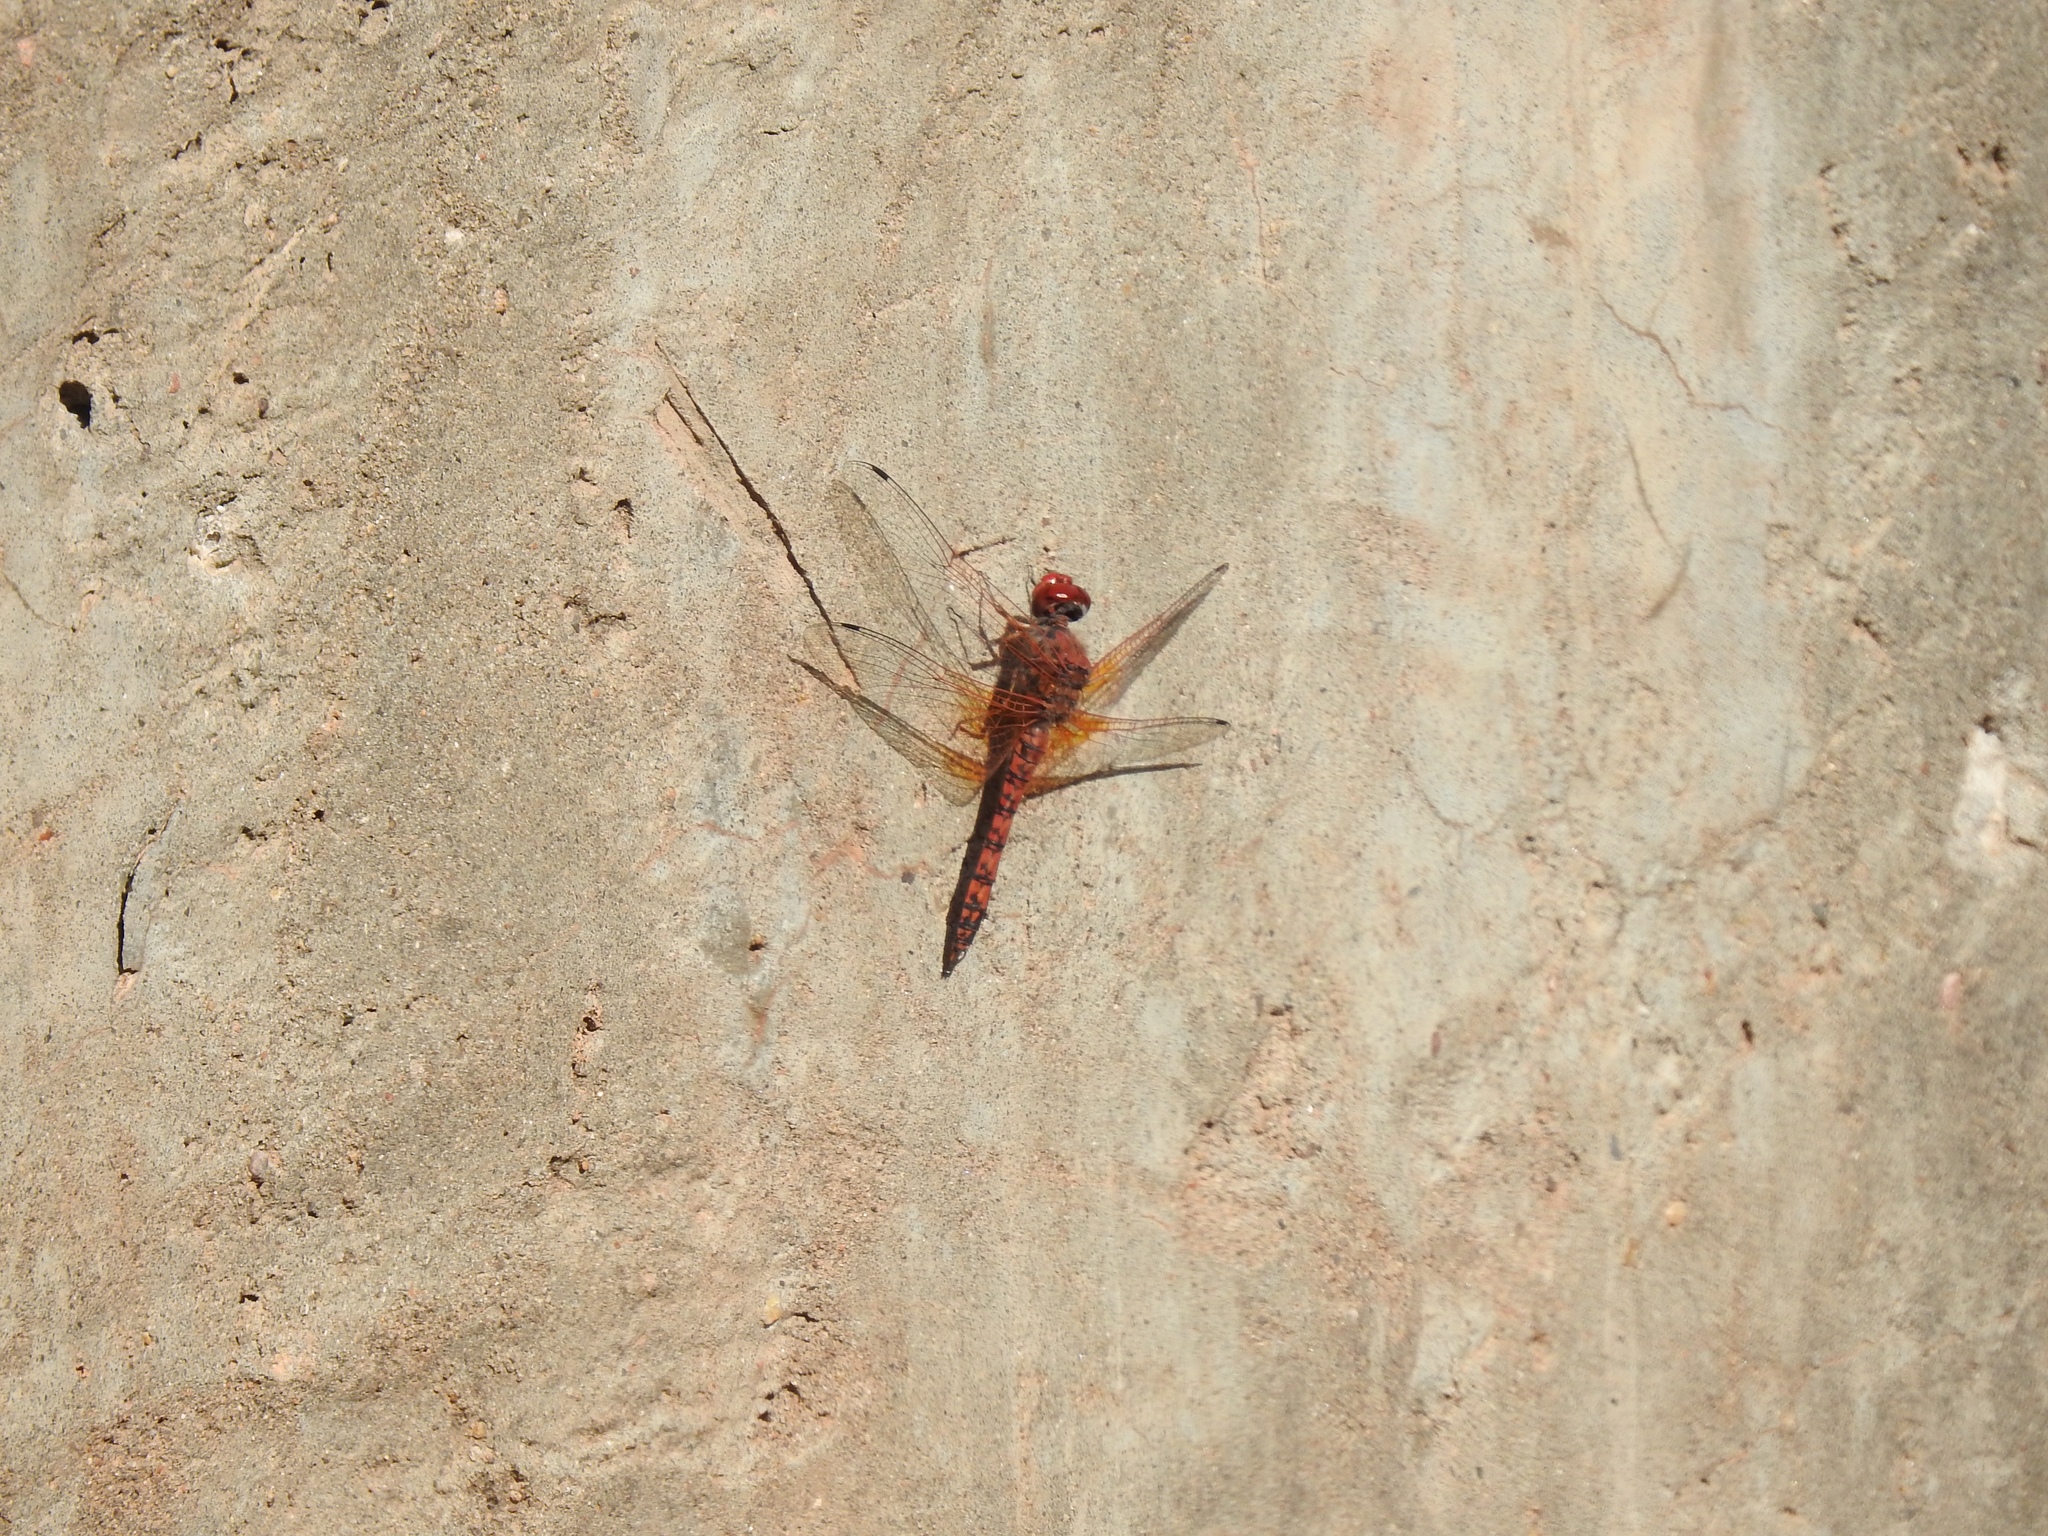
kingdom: Animalia
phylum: Arthropoda
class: Insecta
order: Odonata
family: Libellulidae
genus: Paltothemis
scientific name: Paltothemis lineatipes
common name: Red rock skimmer
